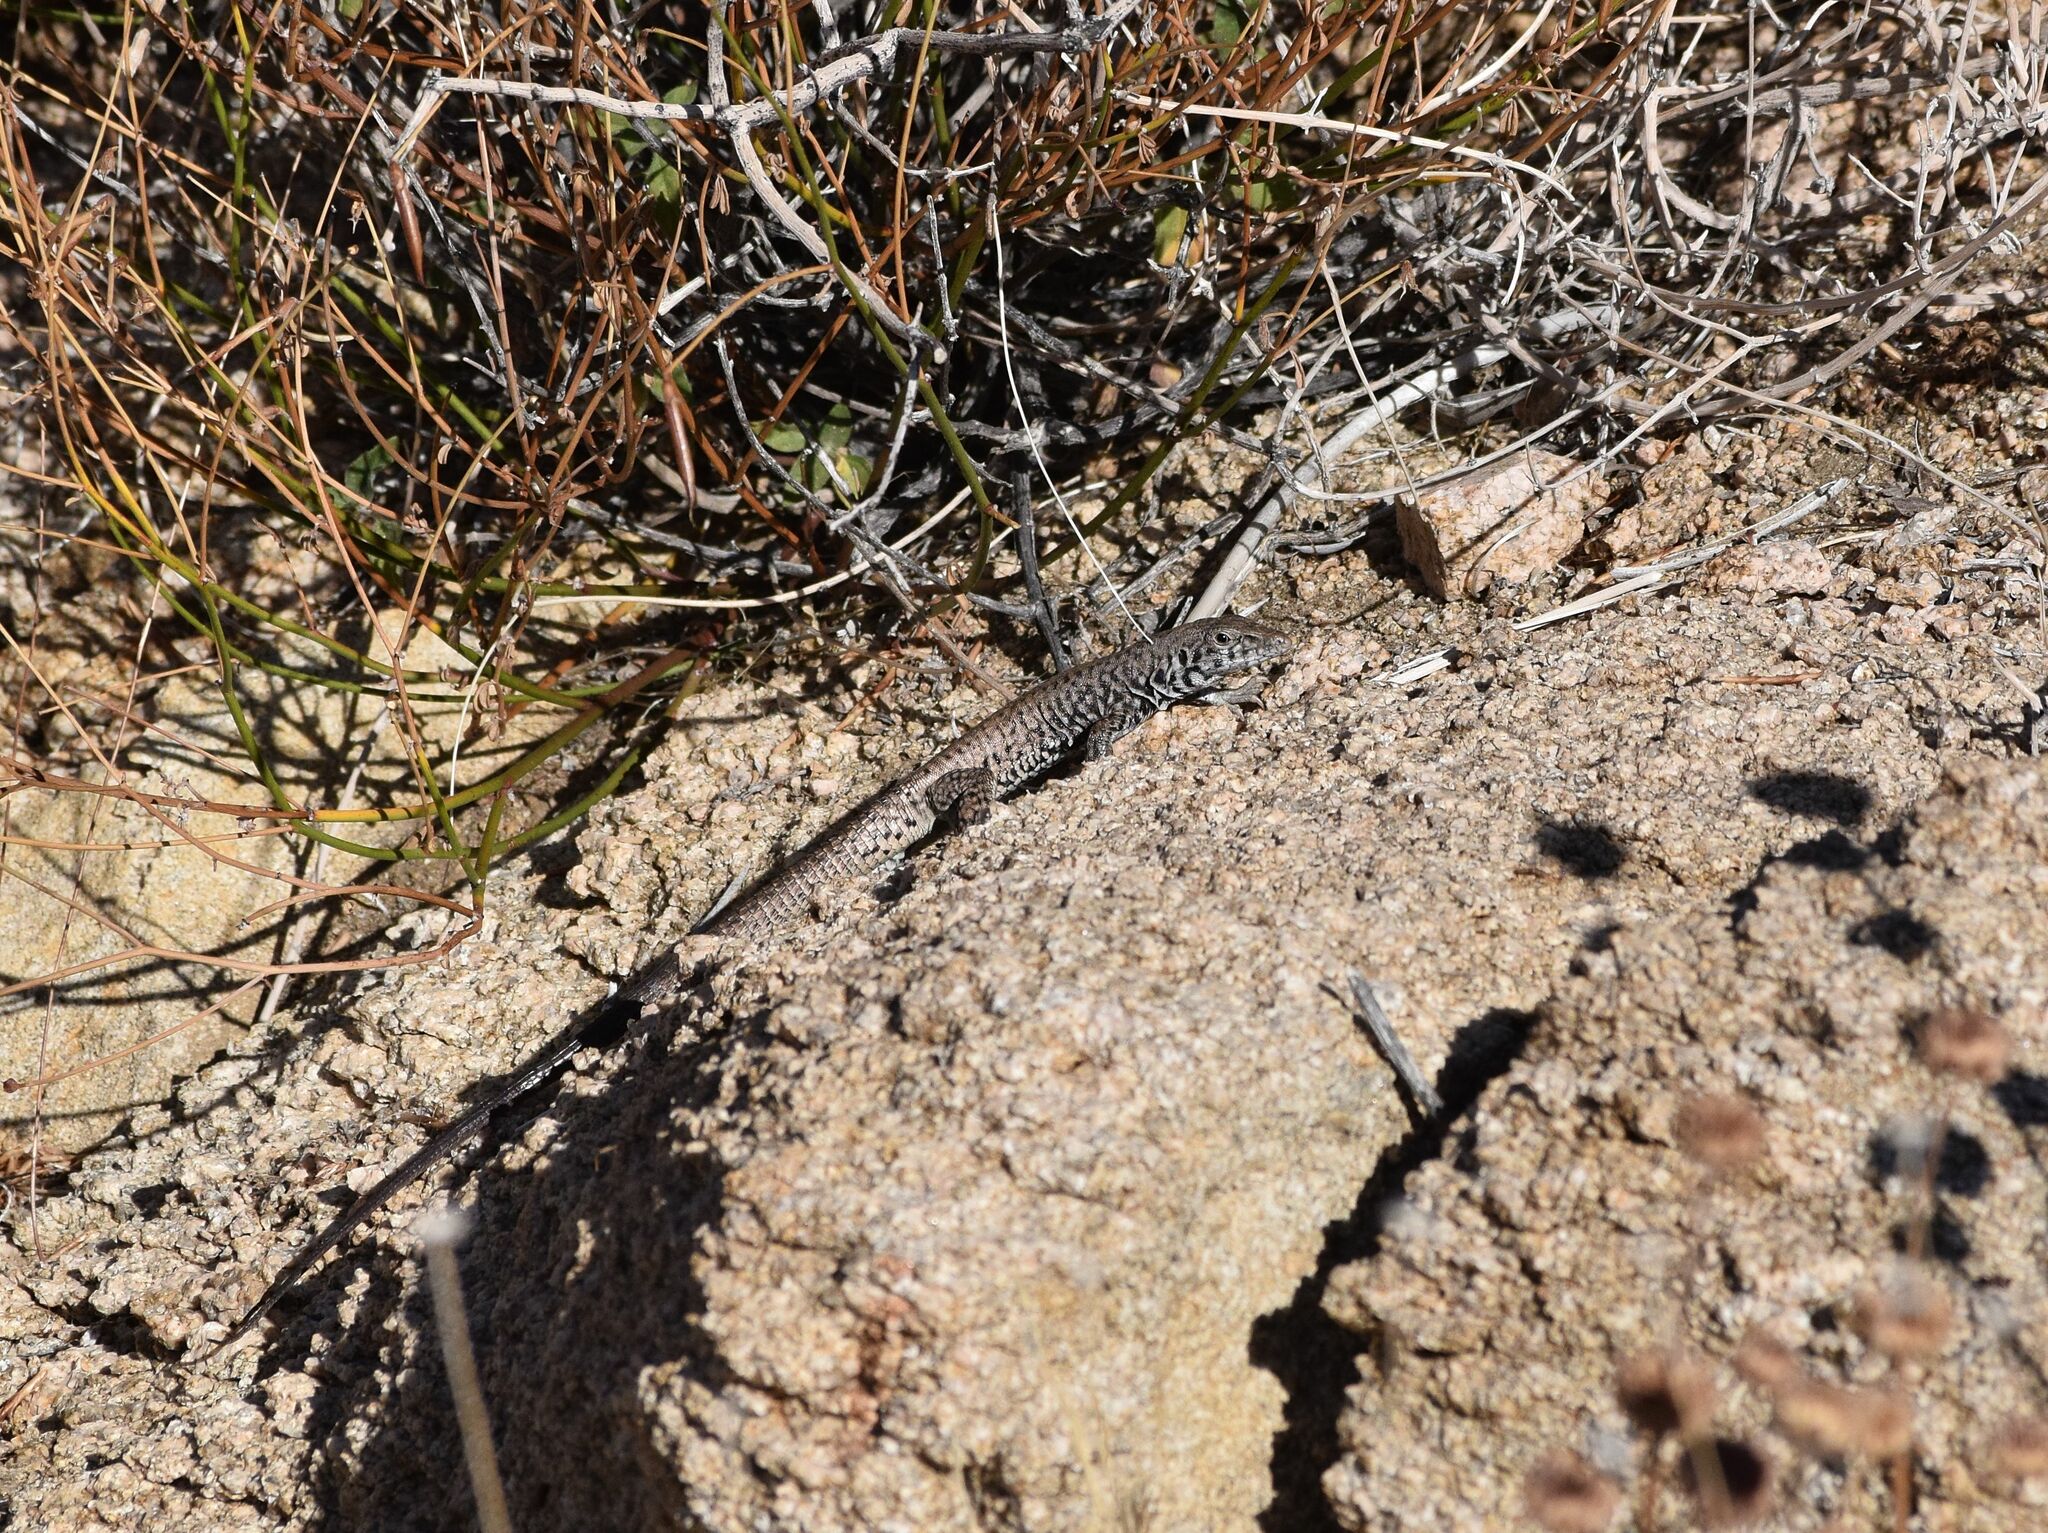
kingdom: Animalia
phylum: Chordata
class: Squamata
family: Teiidae
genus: Aspidoscelis
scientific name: Aspidoscelis tigris
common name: Tiger whiptail
